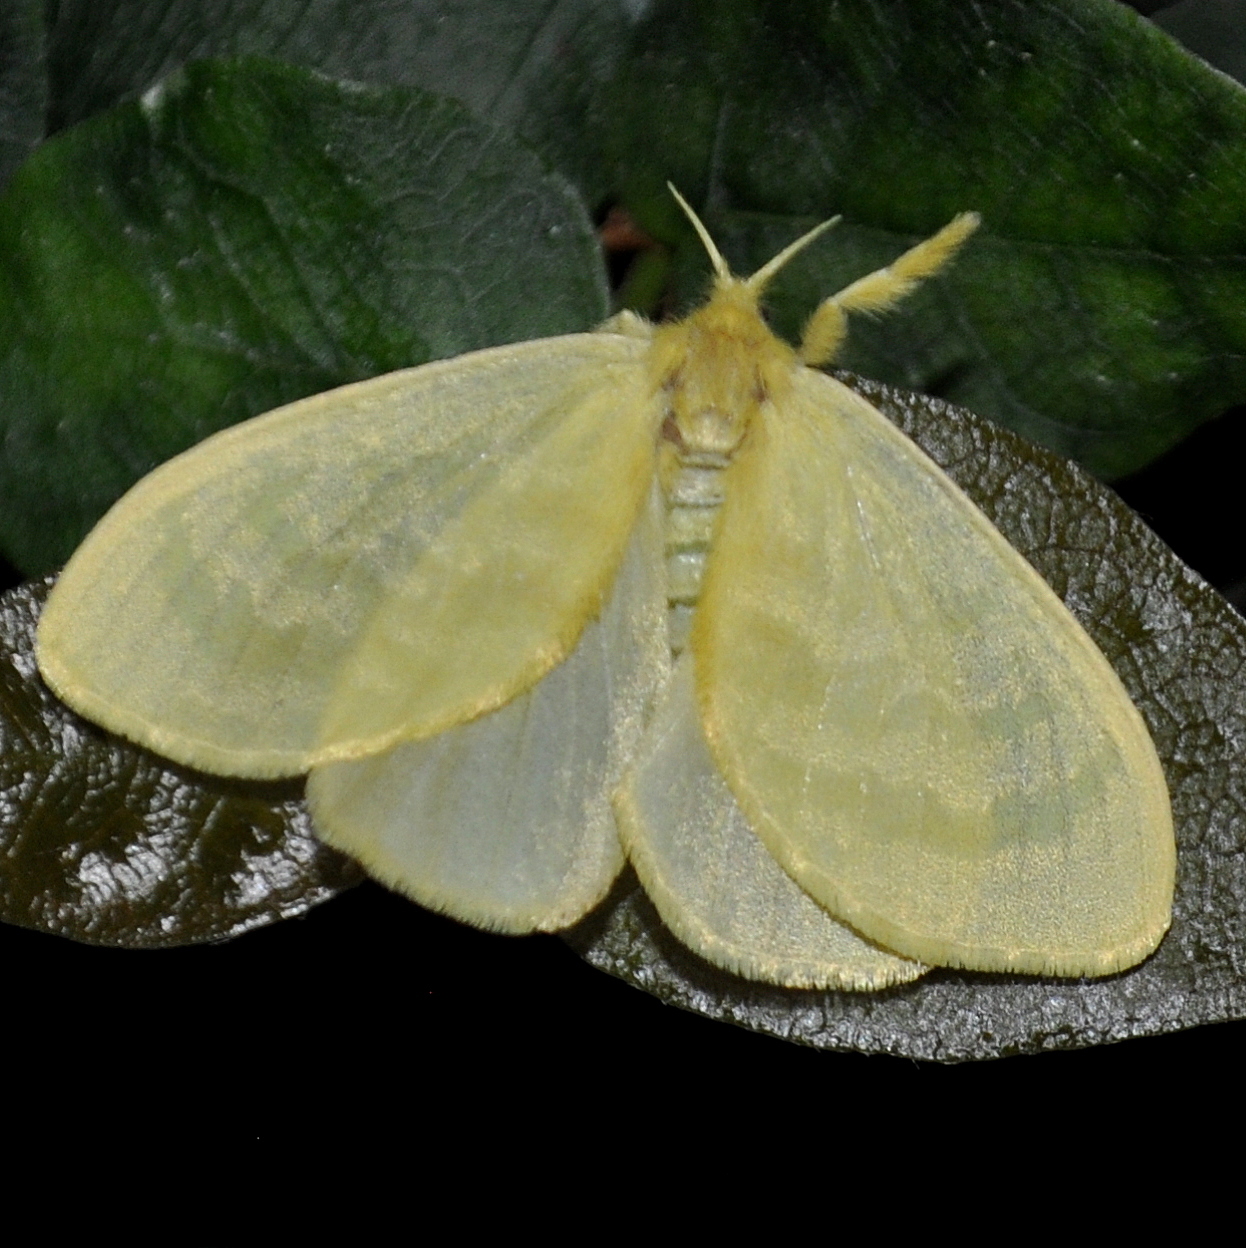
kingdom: Animalia
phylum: Arthropoda
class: Insecta
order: Lepidoptera
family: Dalceridae
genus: Acraga
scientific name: Acraga flava
